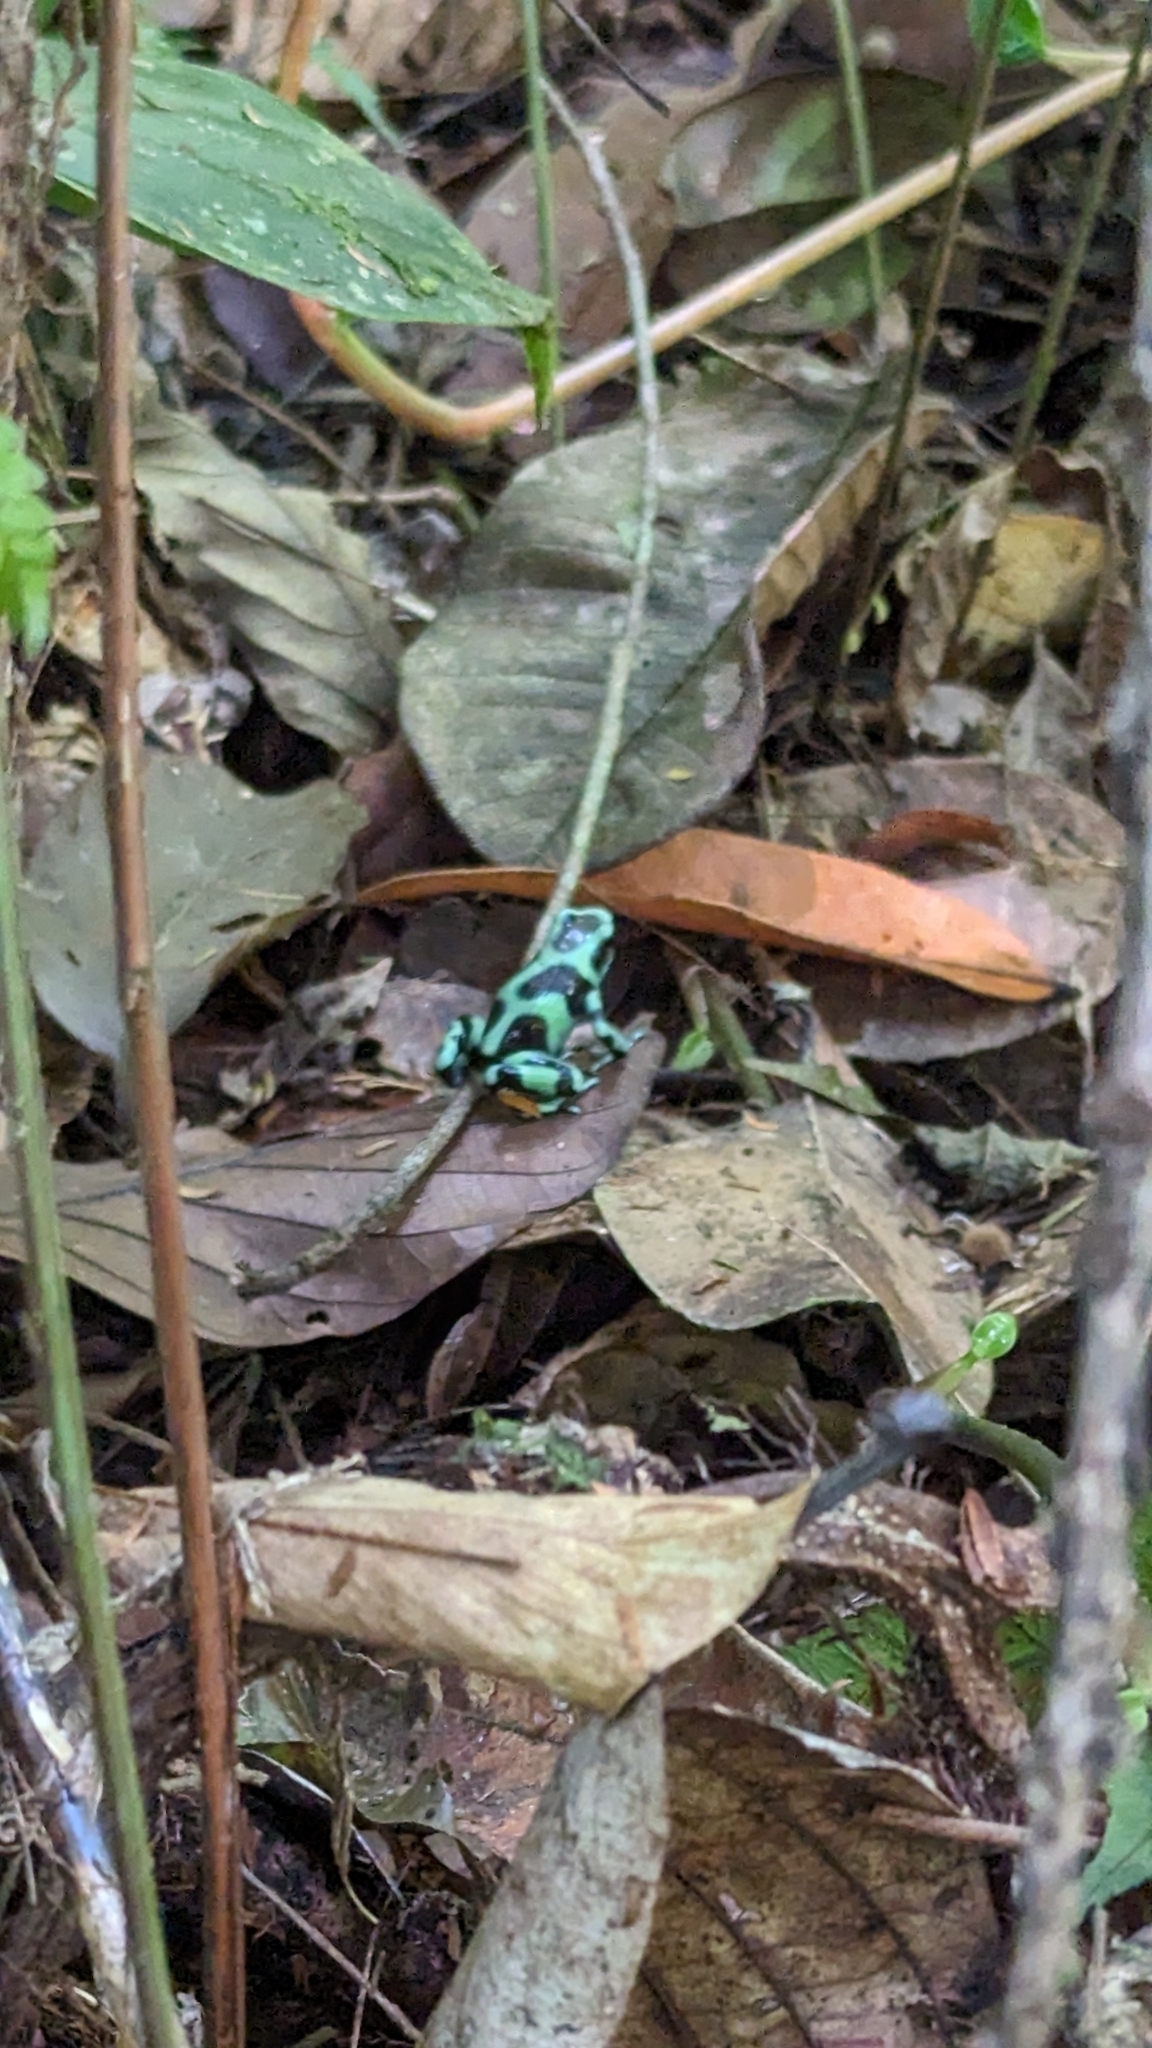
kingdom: Animalia
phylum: Chordata
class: Amphibia
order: Anura
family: Dendrobatidae
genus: Dendrobates
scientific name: Dendrobates auratus
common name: Green and black poison dart frog
